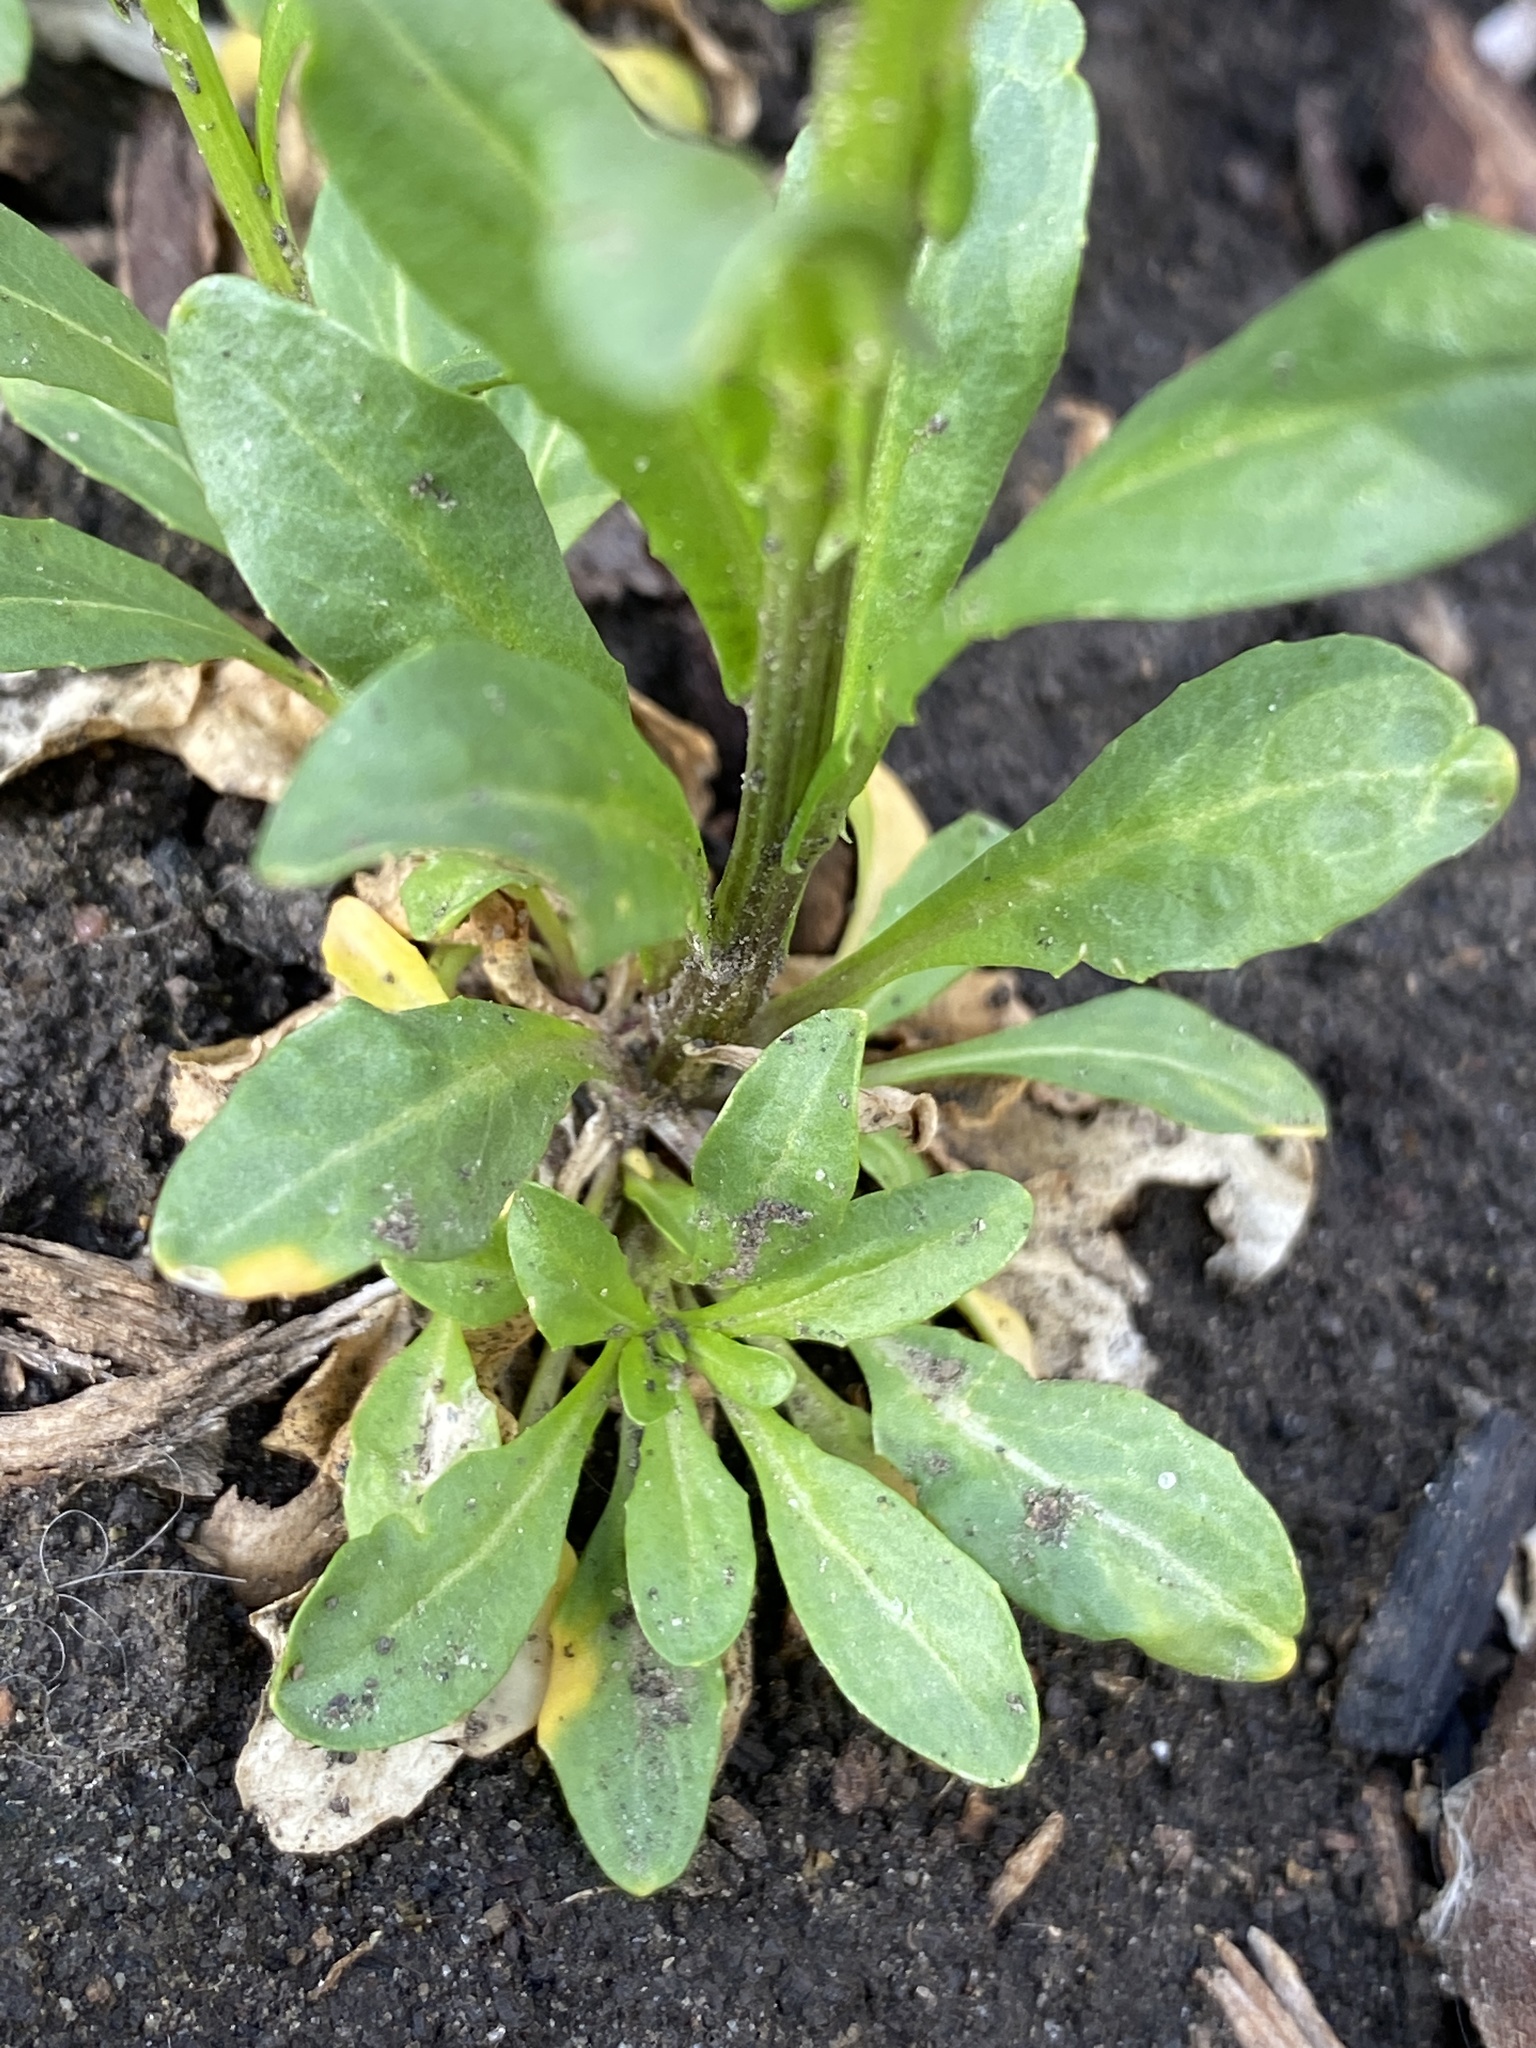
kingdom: Plantae
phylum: Tracheophyta
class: Magnoliopsida
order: Brassicales
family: Brassicaceae
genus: Thlaspi
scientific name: Thlaspi arvense
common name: Field pennycress
